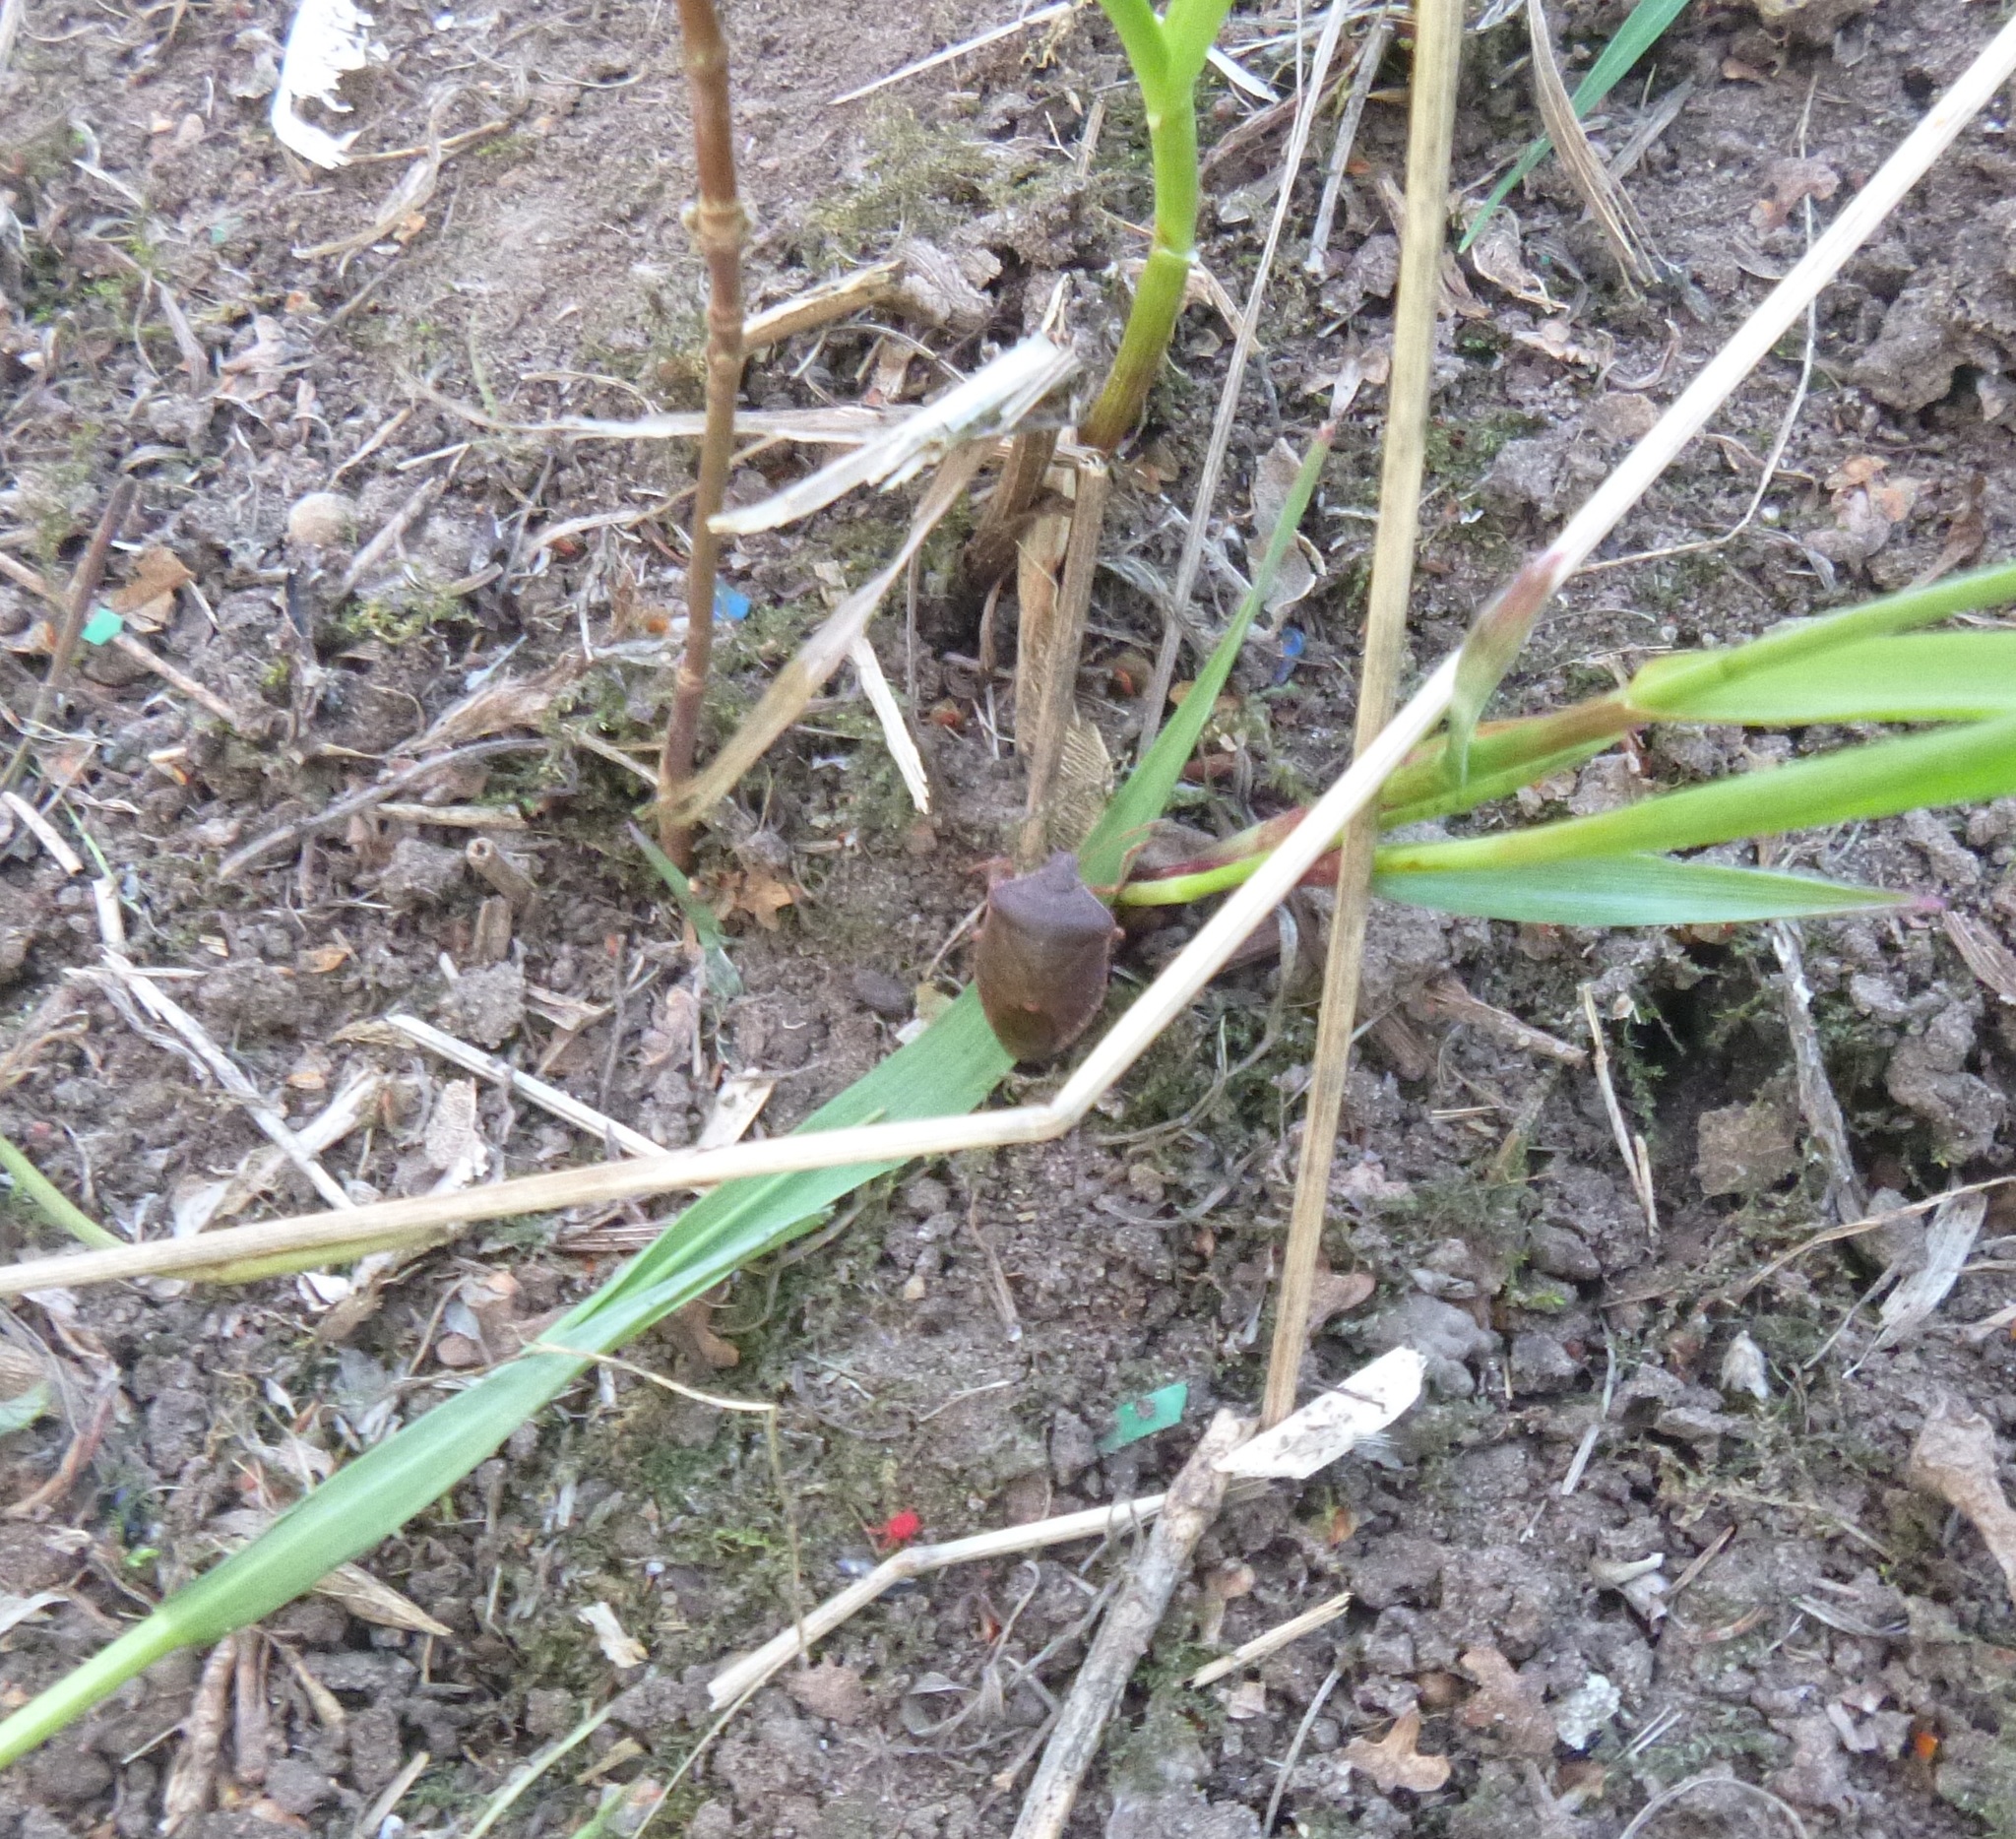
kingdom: Animalia
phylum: Arthropoda
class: Insecta
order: Hemiptera
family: Pentatomidae
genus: Palomena
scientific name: Palomena prasina
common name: Green shieldbug
